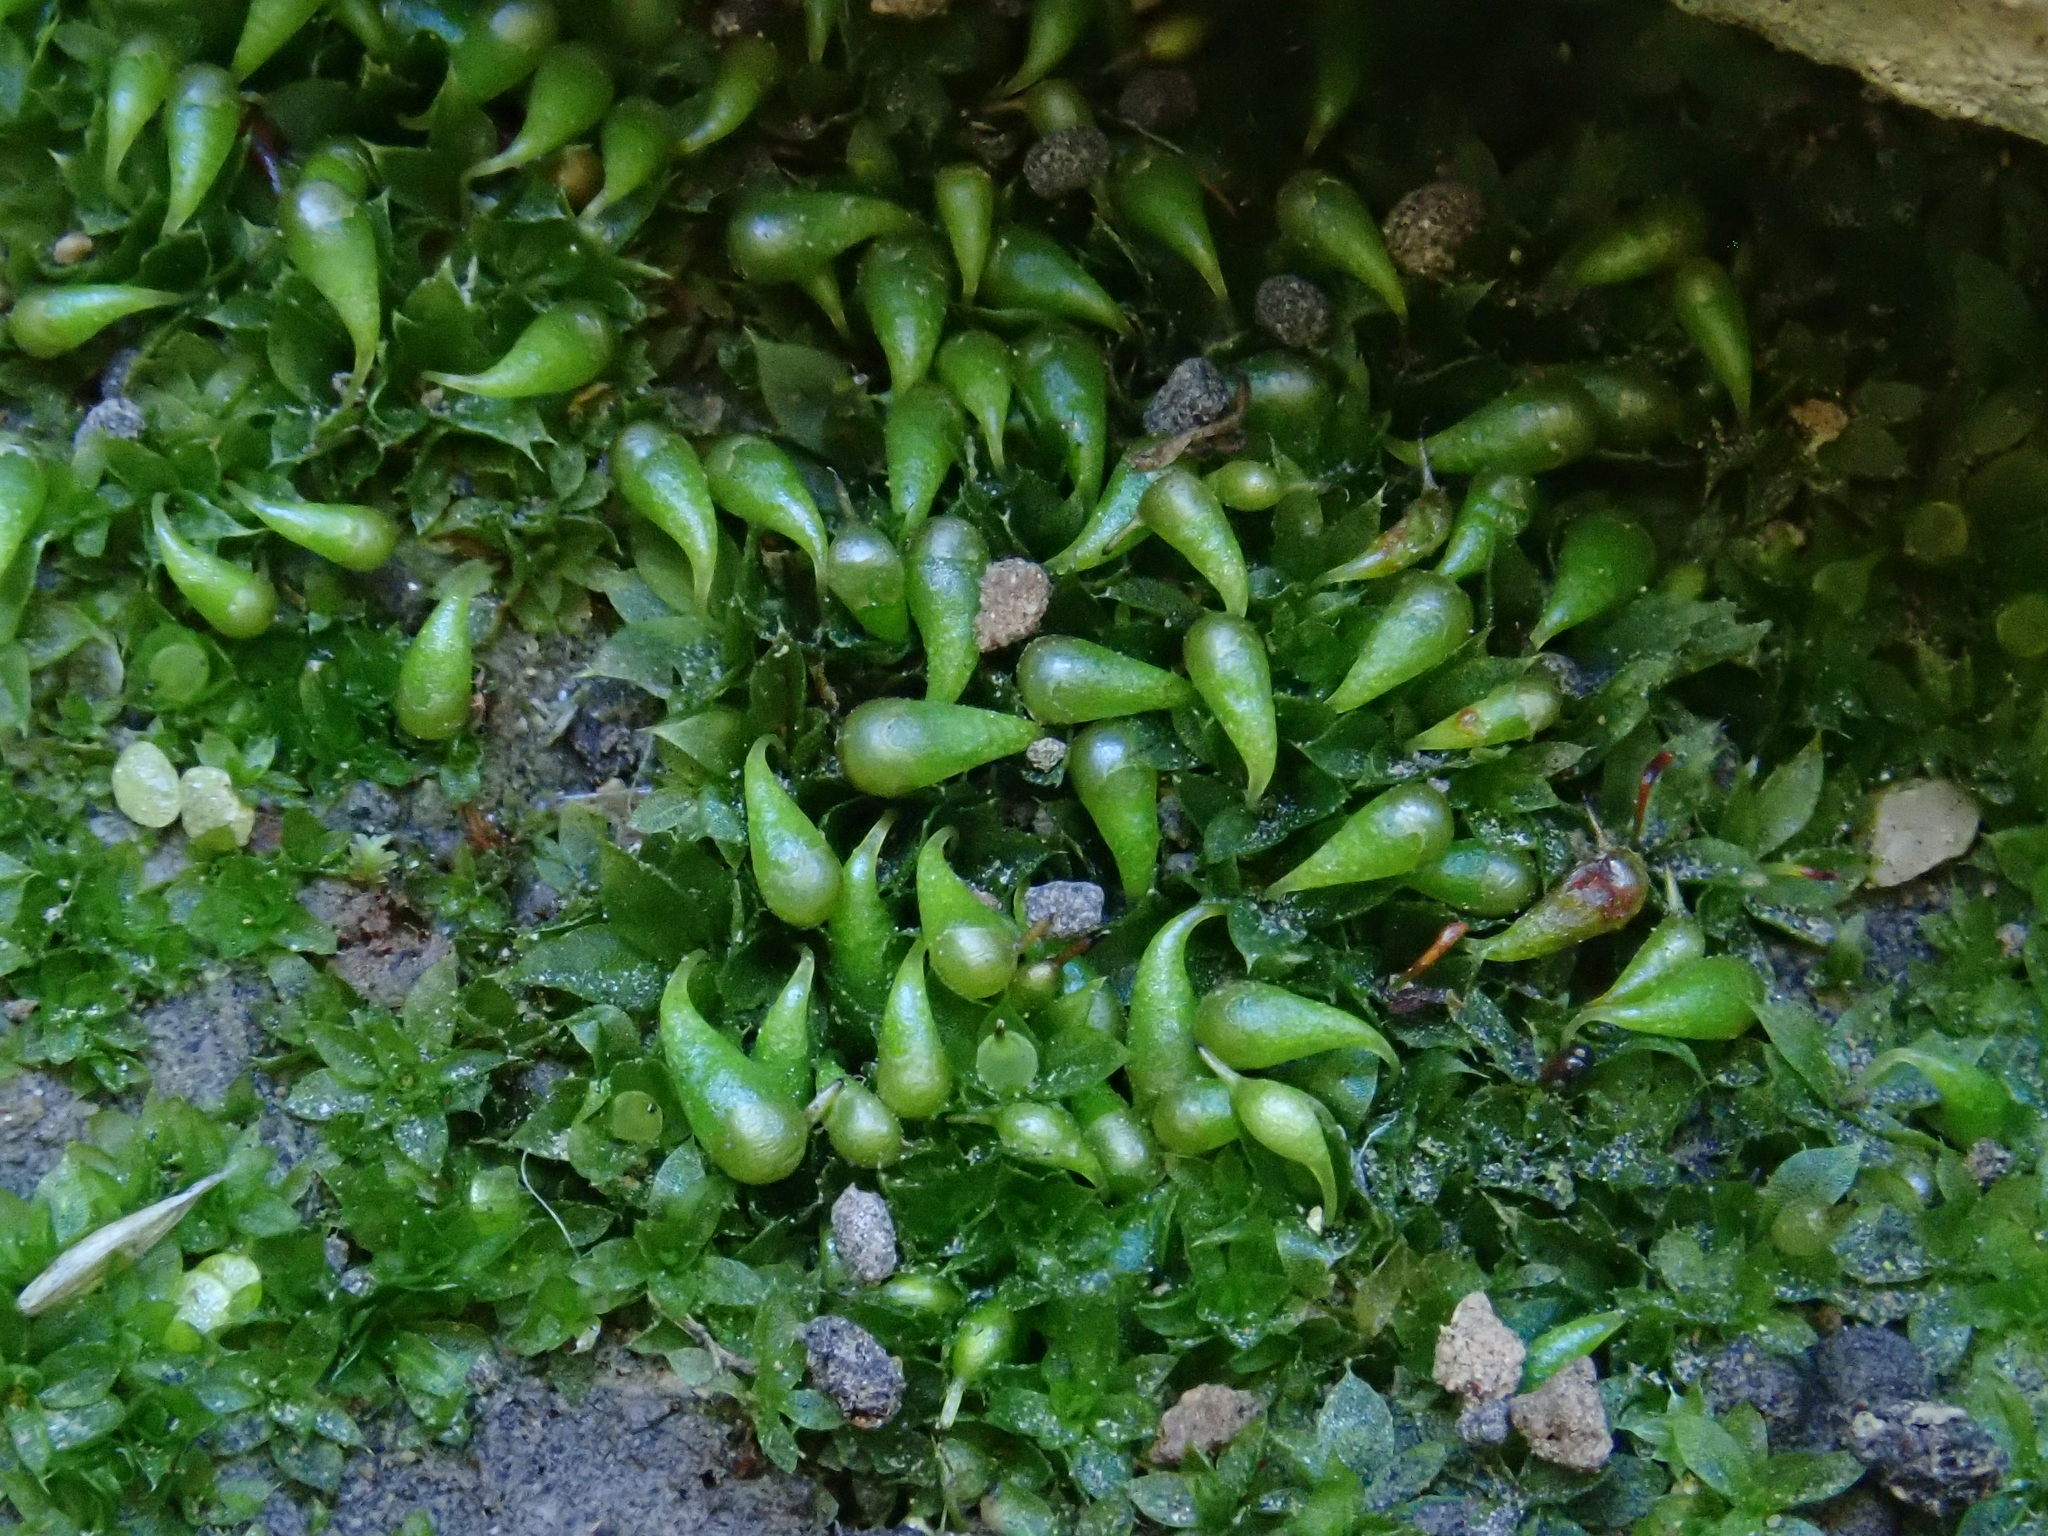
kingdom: Plantae
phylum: Bryophyta
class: Bryopsida
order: Funariales
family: Funariaceae
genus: Funariella
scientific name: Funariella curviseta
